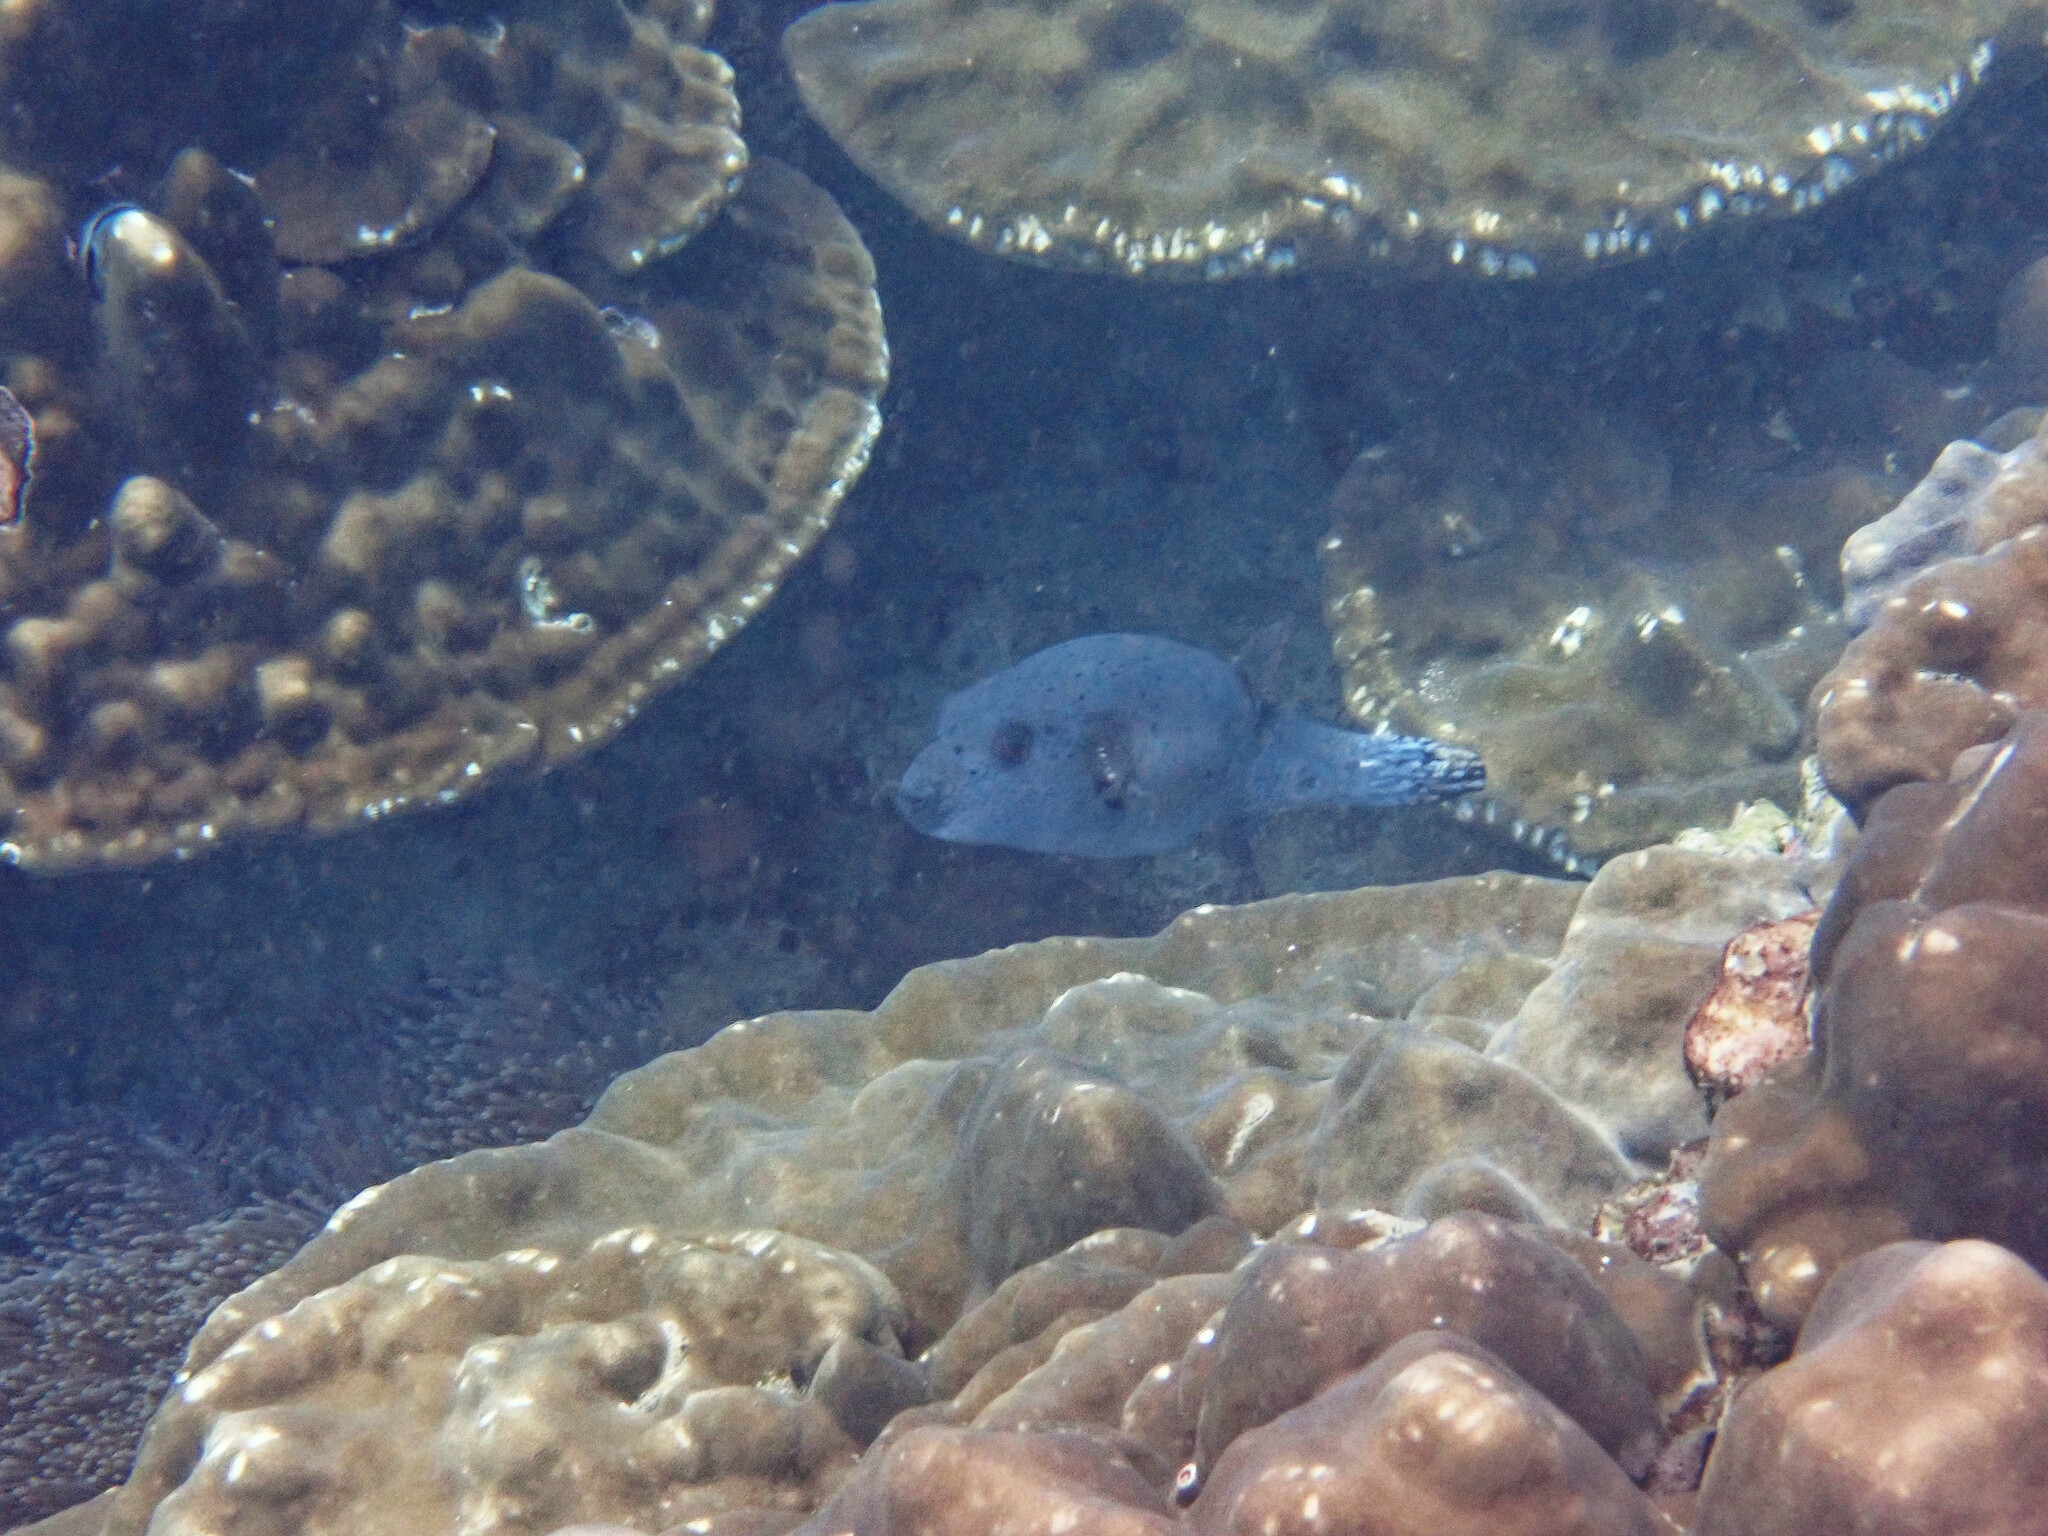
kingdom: Animalia
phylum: Chordata
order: Tetraodontiformes
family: Tetraodontidae
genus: Arothron
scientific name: Arothron nigropunctatus
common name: Black spotted blow fish
